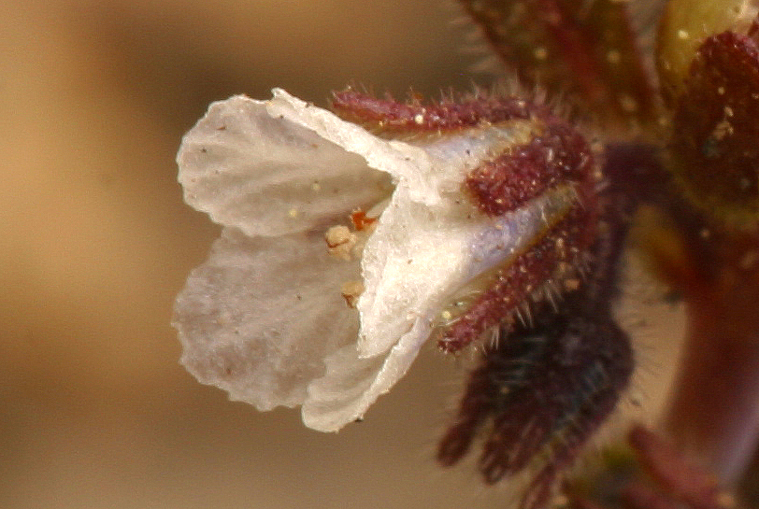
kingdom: Plantae
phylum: Tracheophyta
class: Magnoliopsida
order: Boraginales
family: Hydrophyllaceae
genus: Phacelia
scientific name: Phacelia racemosa
